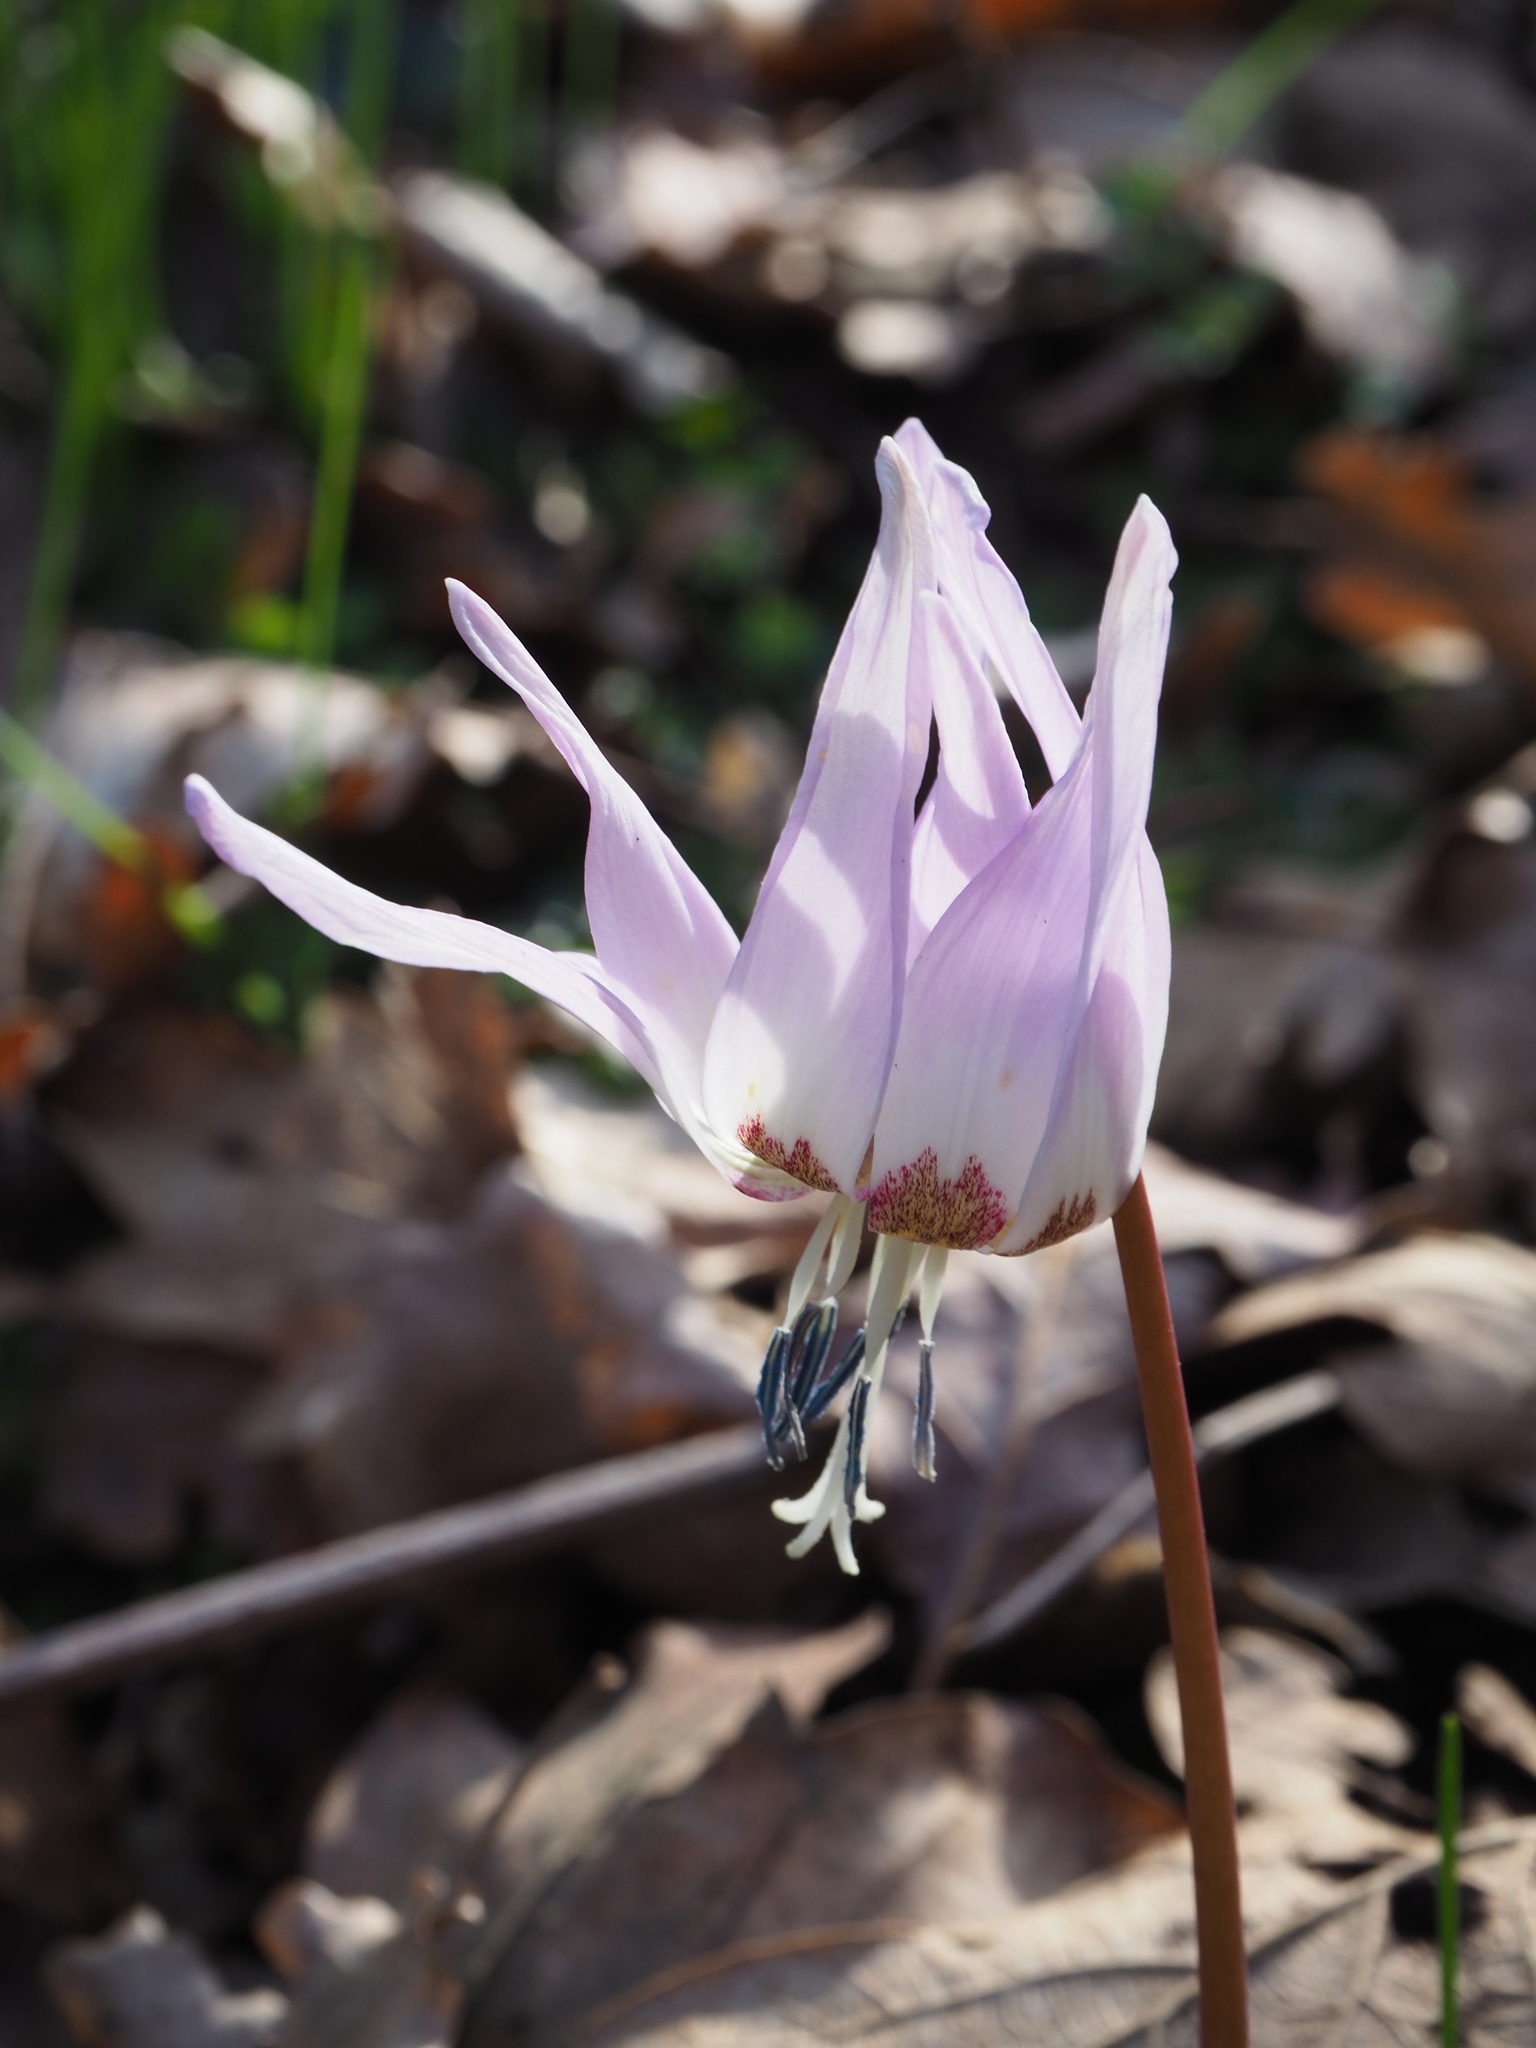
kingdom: Plantae
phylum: Tracheophyta
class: Liliopsida
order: Liliales
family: Liliaceae
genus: Erythronium
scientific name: Erythronium dens-canis
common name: Dog's-tooth-violet
